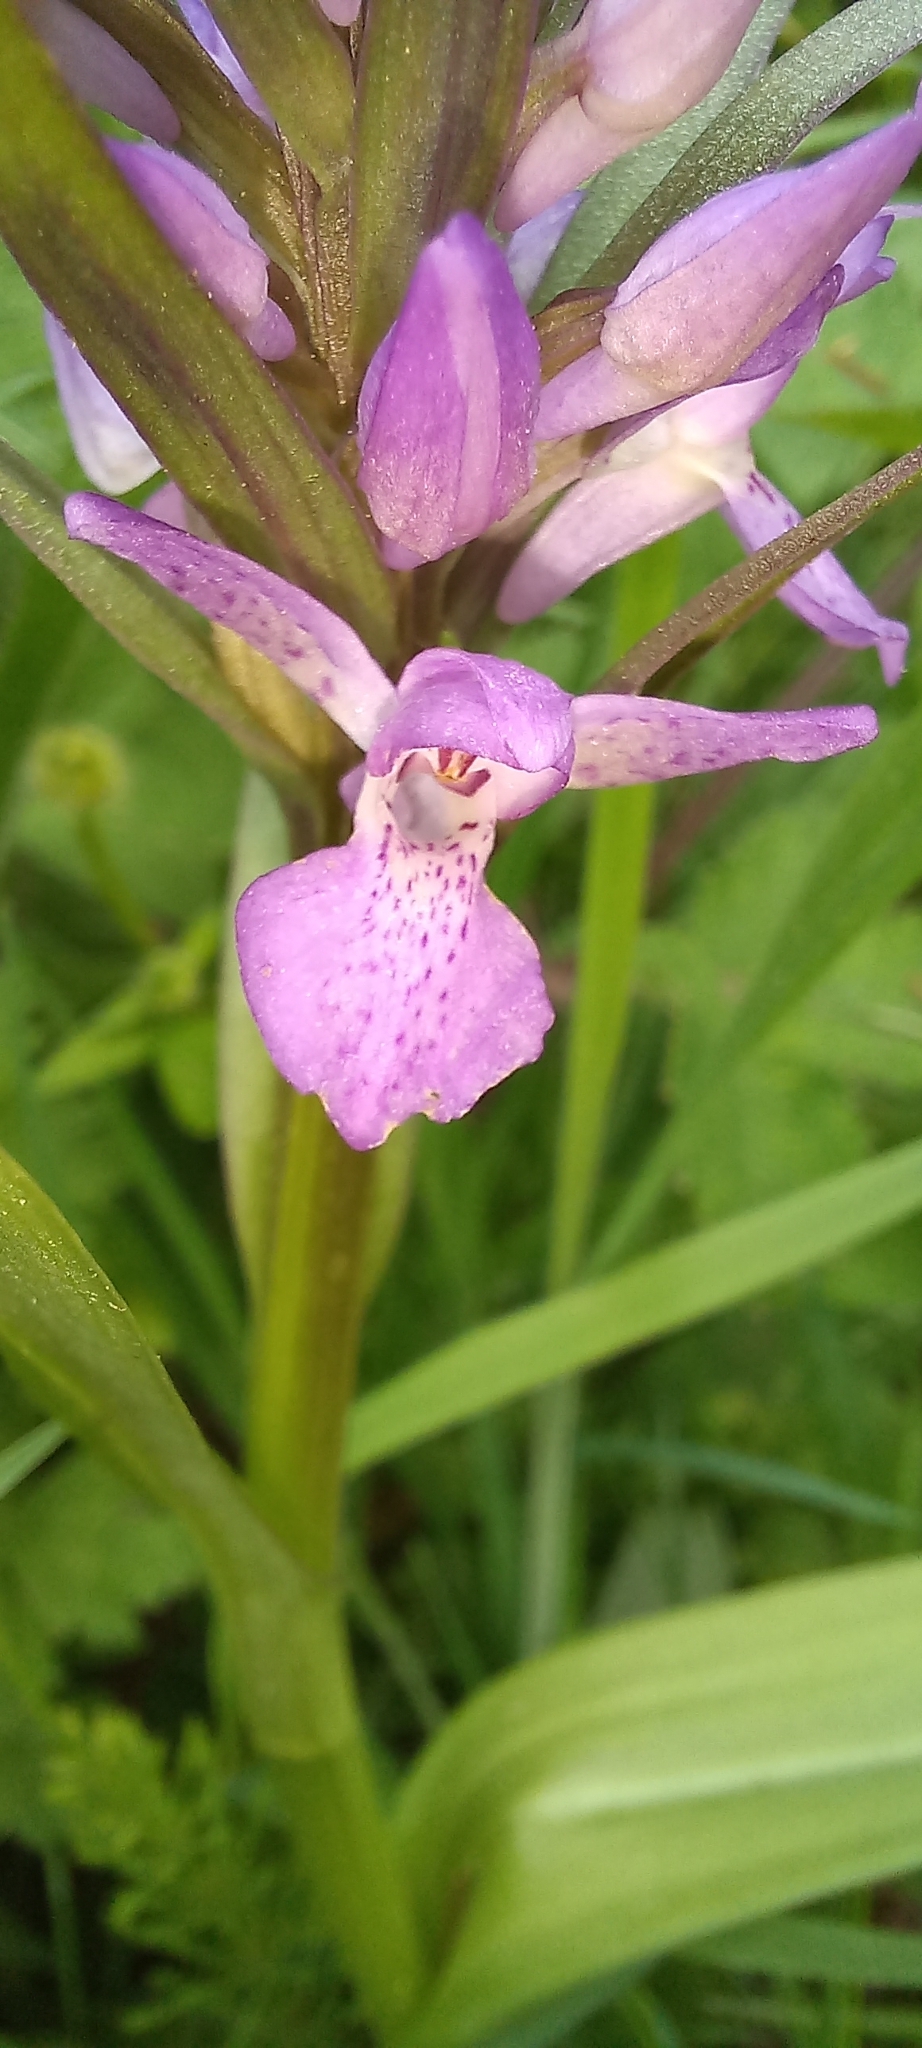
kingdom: Plantae
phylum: Tracheophyta
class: Liliopsida
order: Asparagales
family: Orchidaceae
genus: Dactylorhiza
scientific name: Dactylorhiza majalis
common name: Marsh orchid
